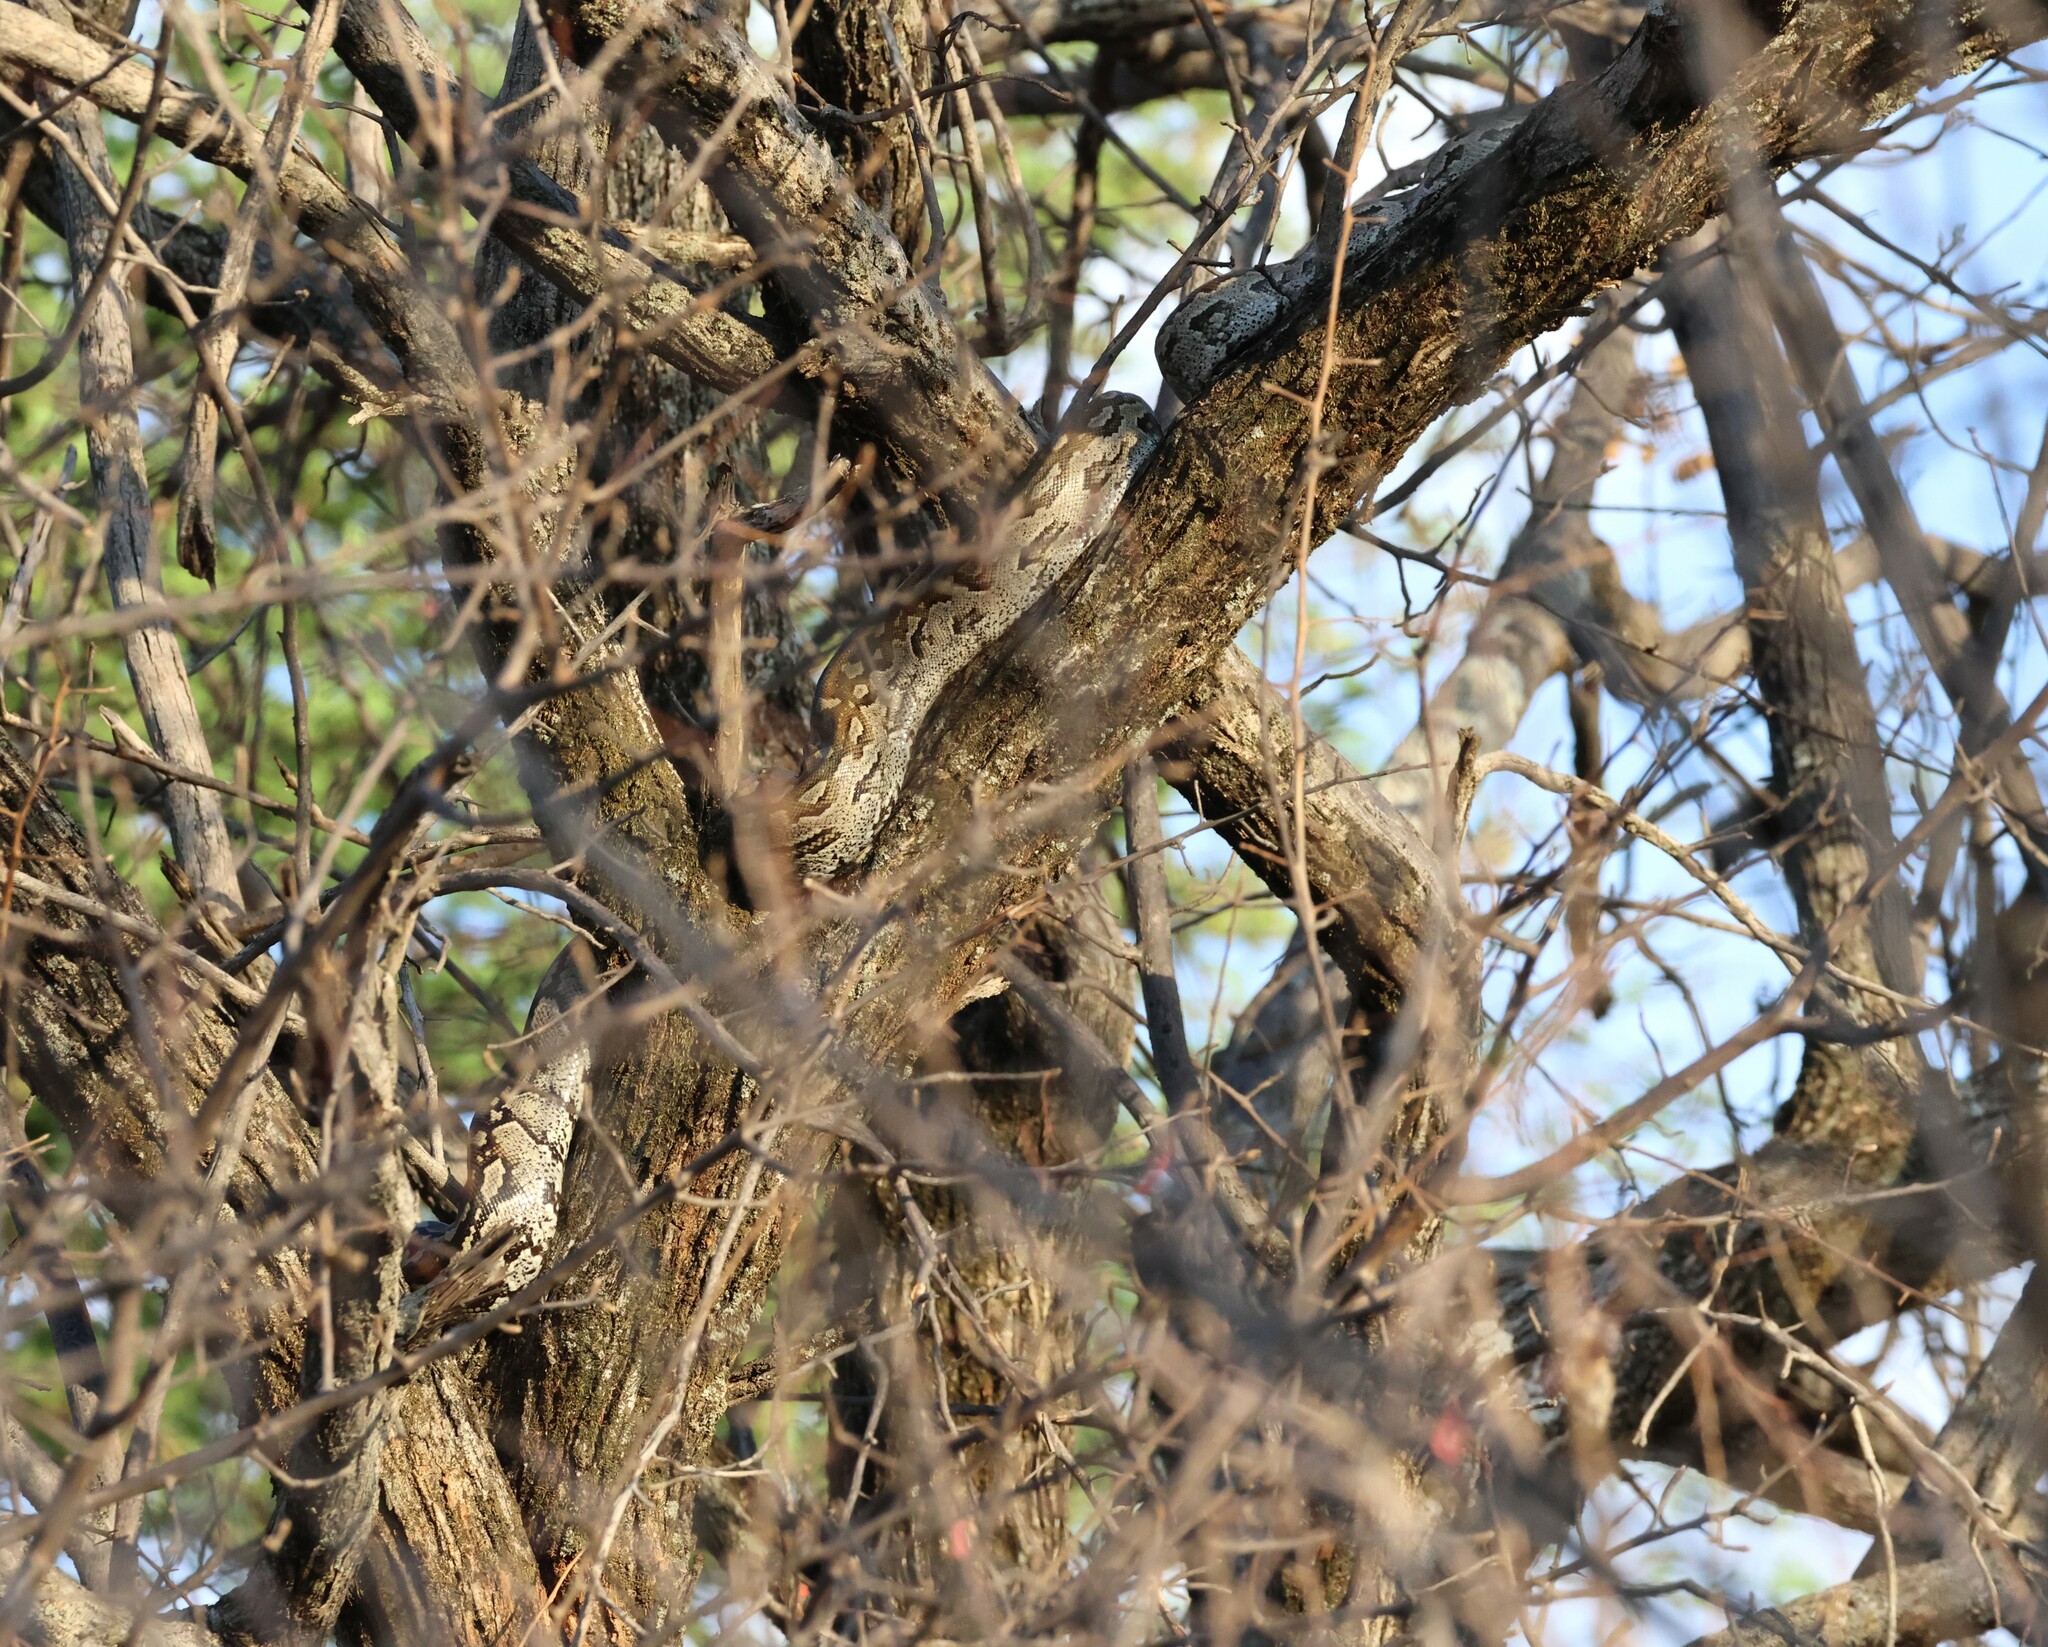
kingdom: Animalia
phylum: Chordata
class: Squamata
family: Pythonidae
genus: Python
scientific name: Python natalensis
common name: Southern african rock python
